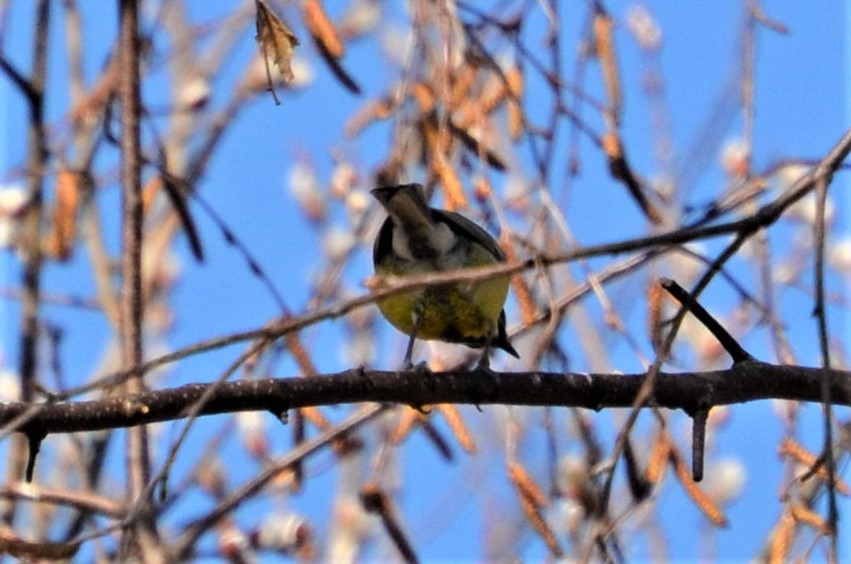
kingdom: Animalia
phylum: Chordata
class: Aves
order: Passeriformes
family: Paridae
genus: Parus
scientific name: Parus major
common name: Great tit
